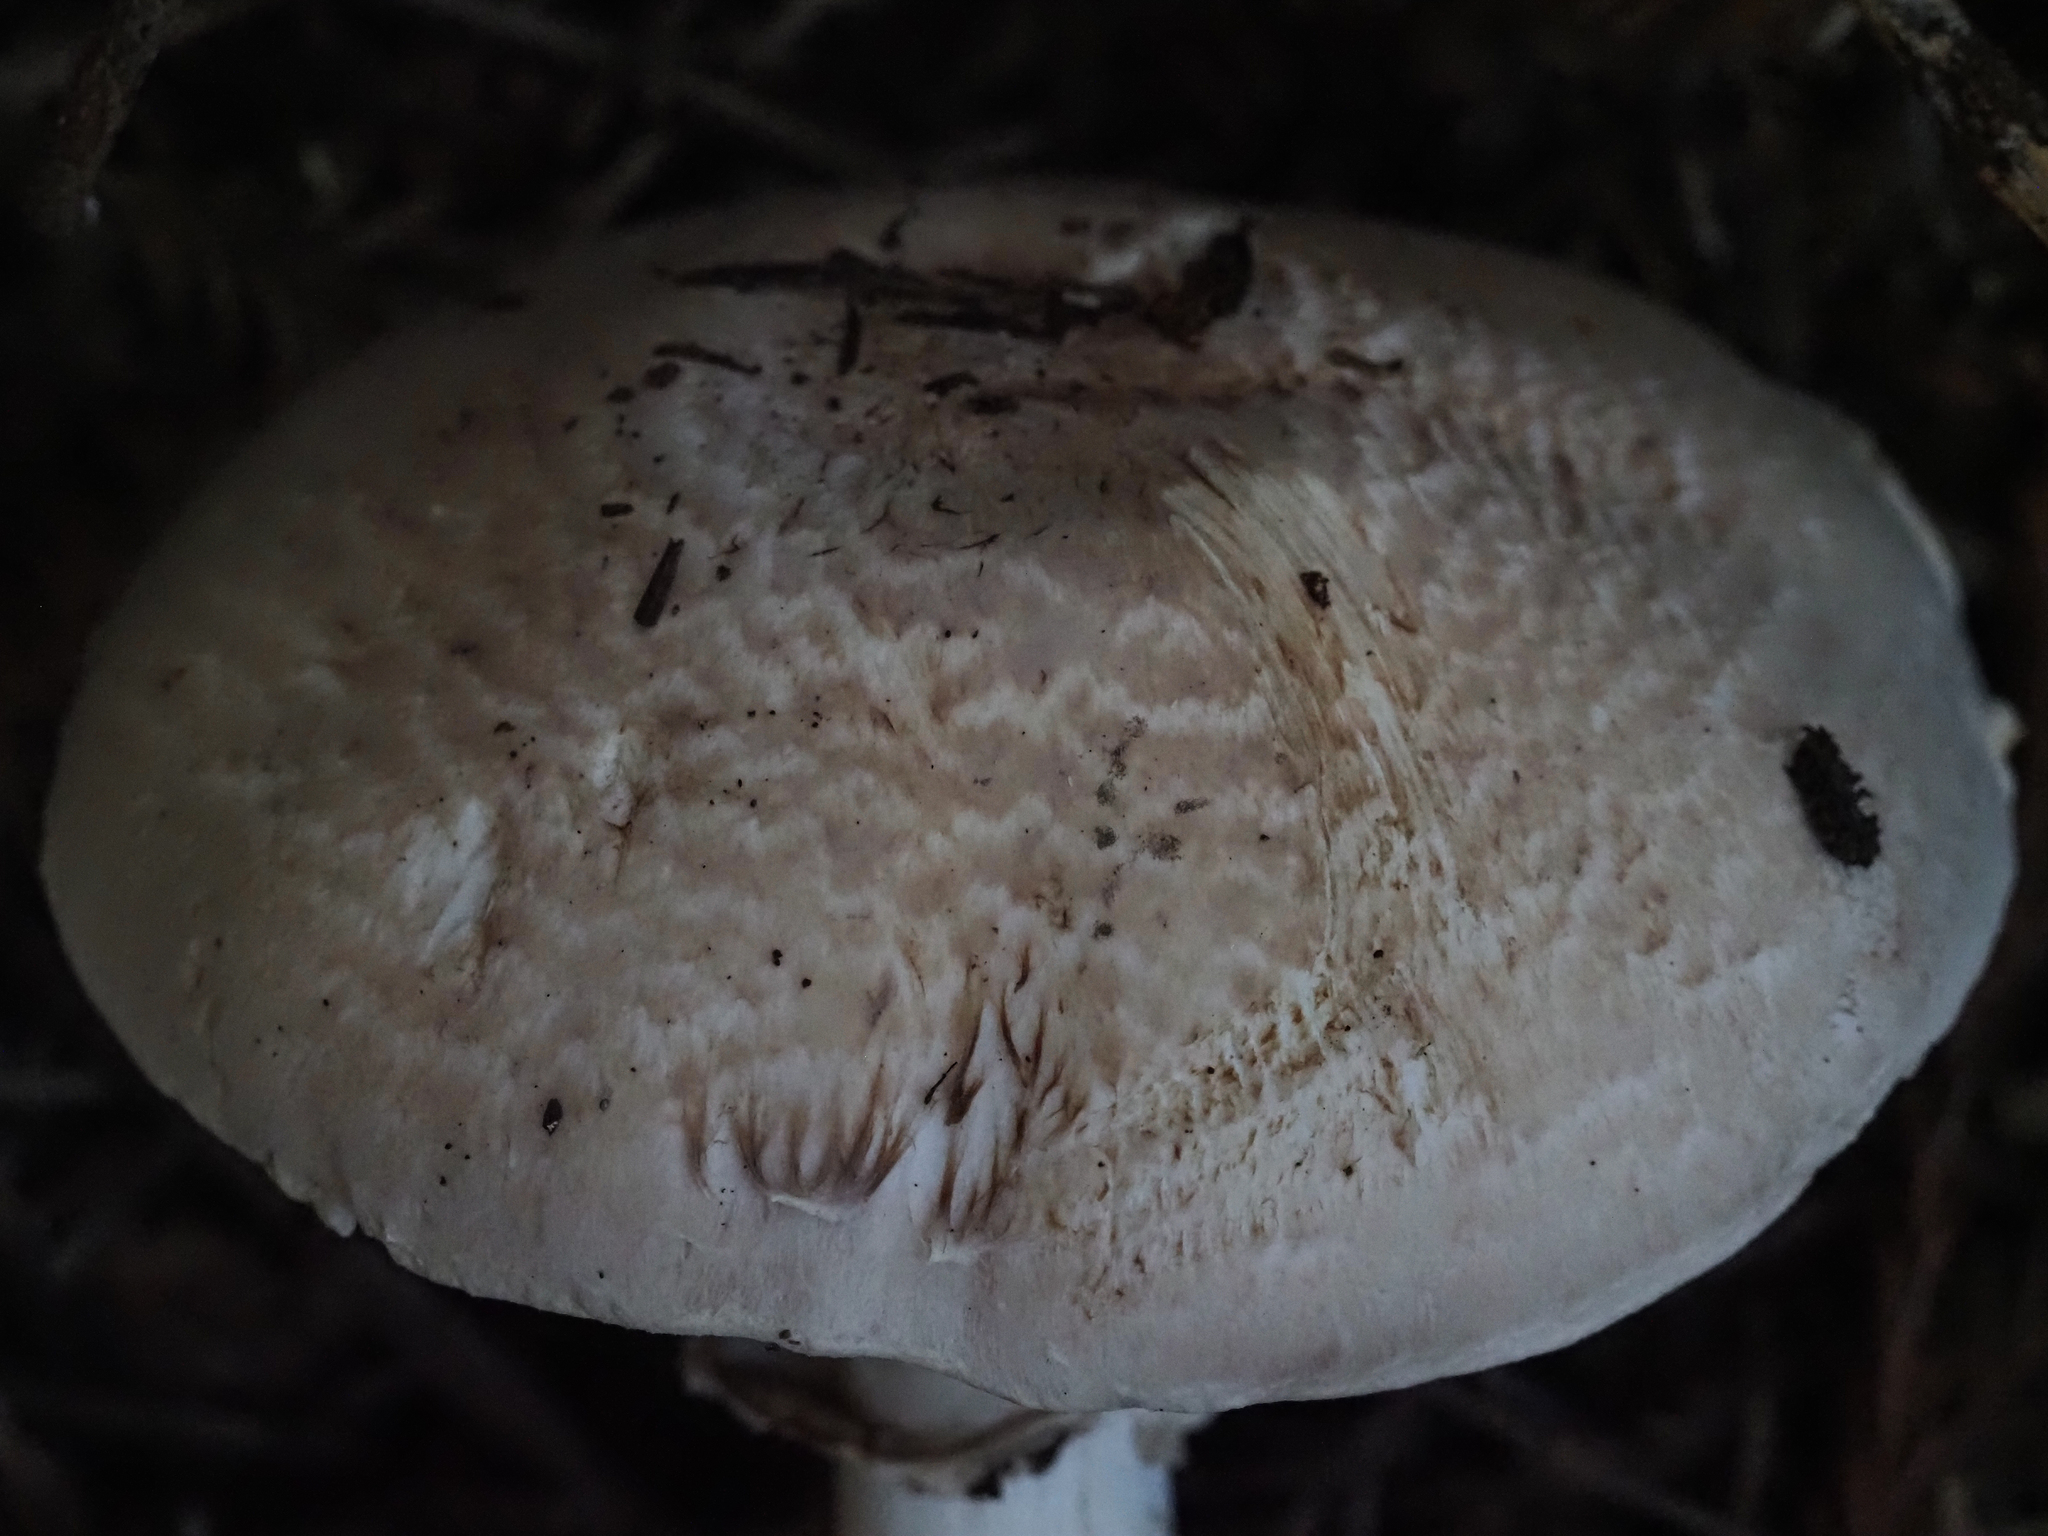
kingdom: Fungi
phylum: Basidiomycota
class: Agaricomycetes
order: Agaricales
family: Agaricaceae
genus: Agaricus
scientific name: Agaricus hondensis
